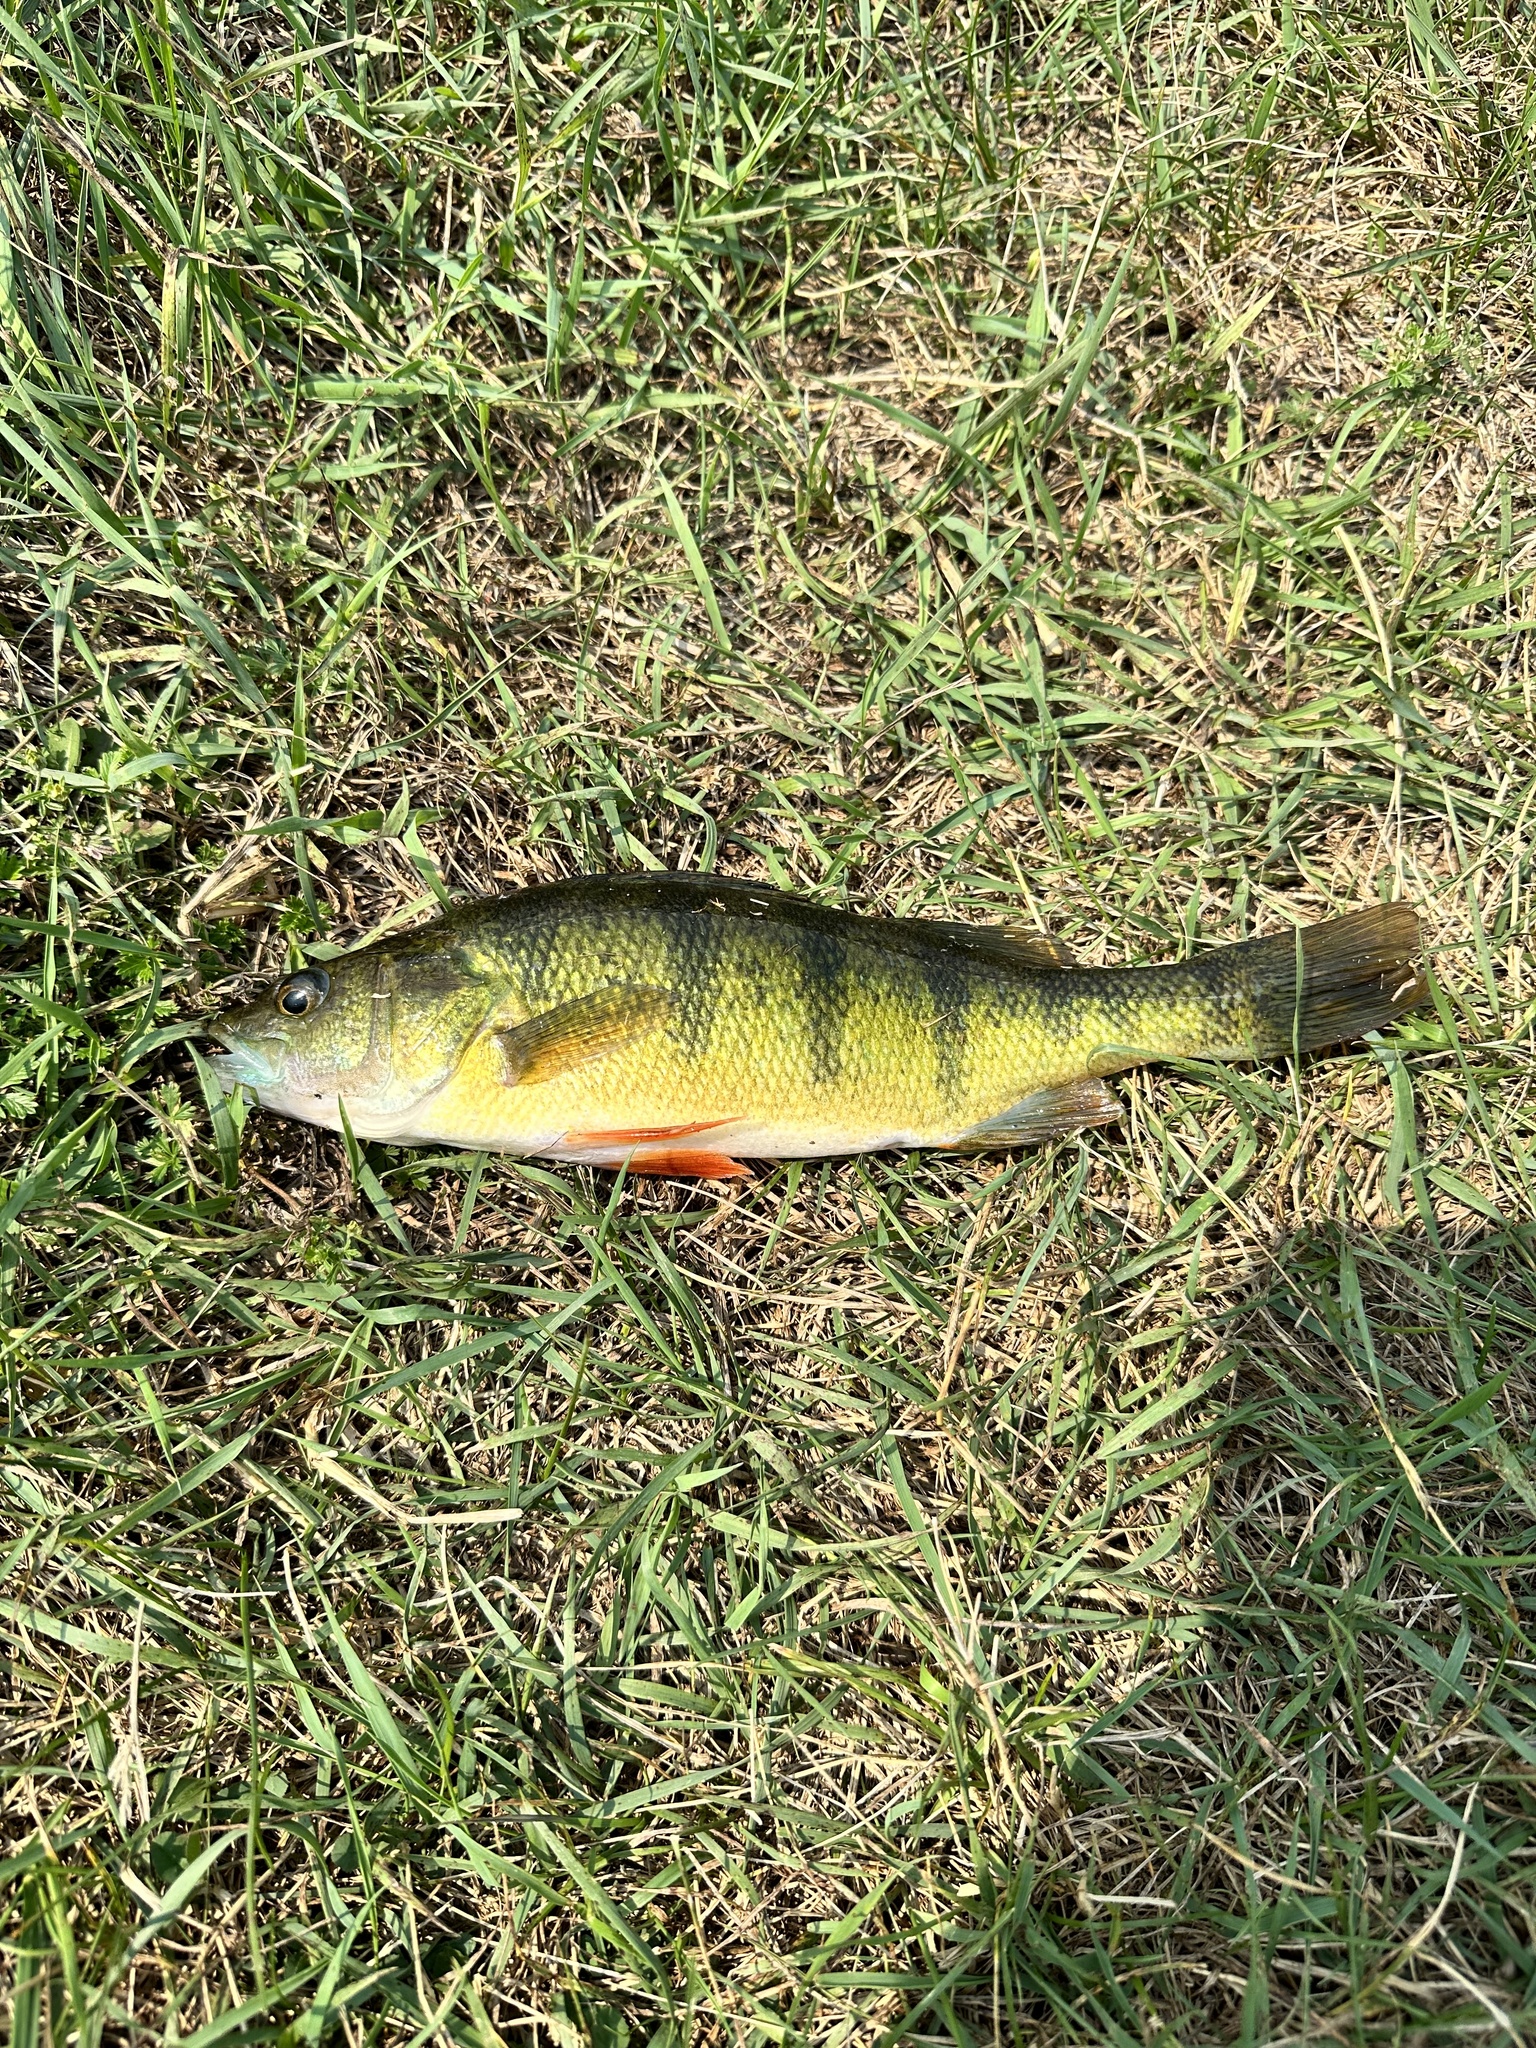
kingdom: Animalia
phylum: Chordata
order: Perciformes
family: Percidae
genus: Perca
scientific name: Perca flavescens
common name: Yellow perch
